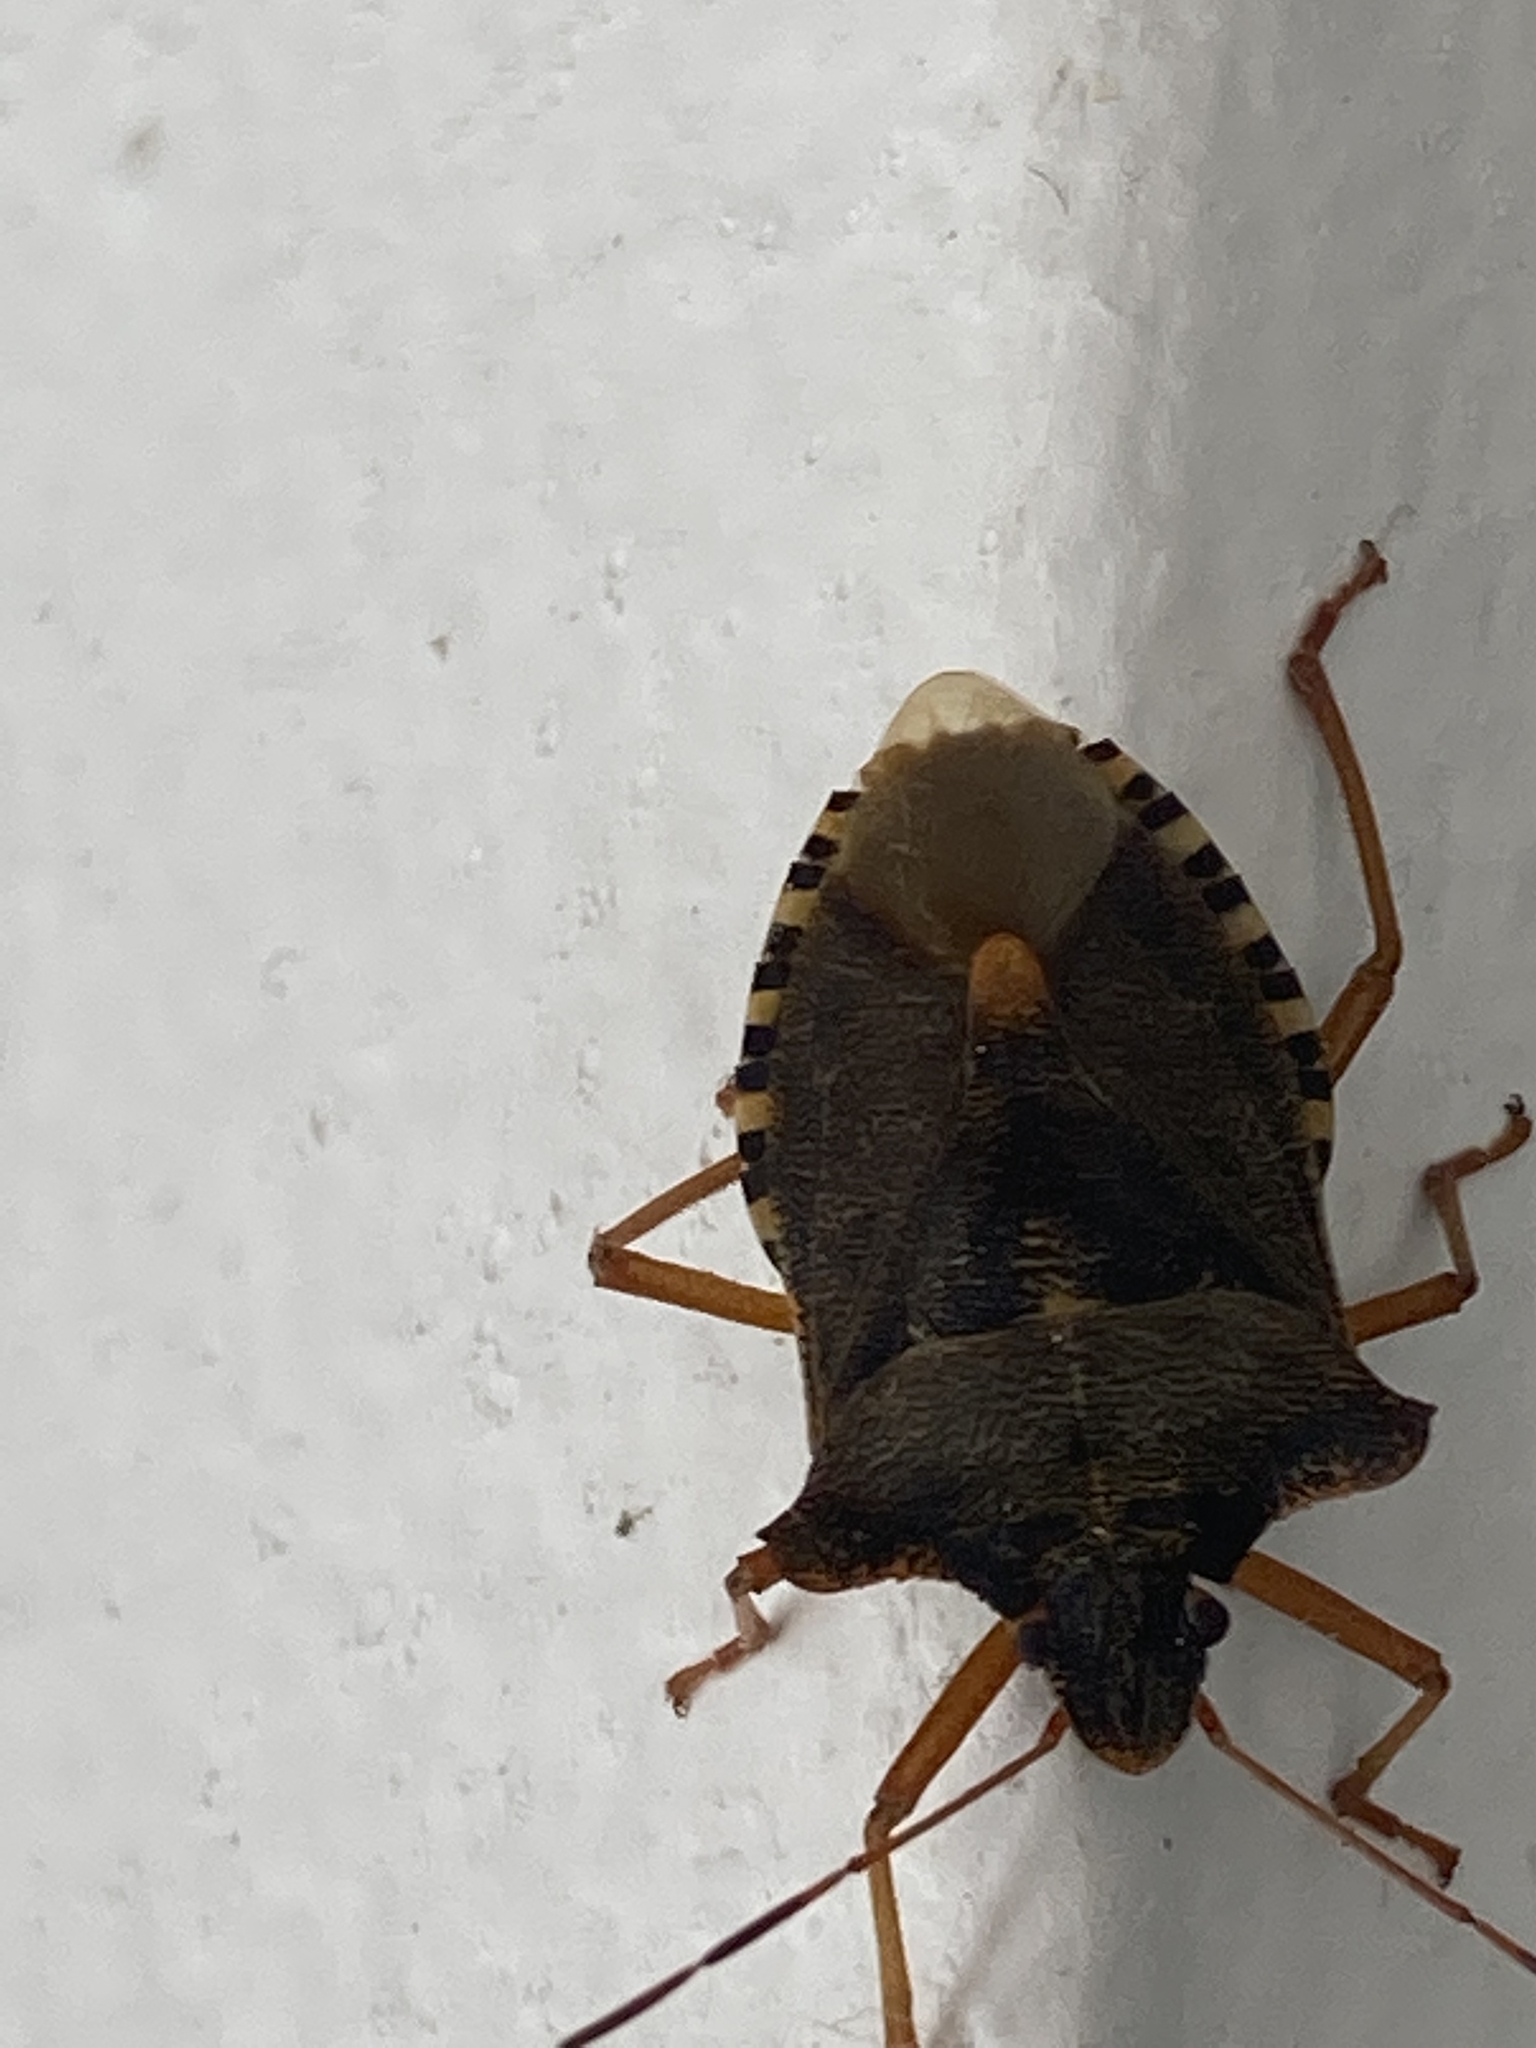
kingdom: Animalia
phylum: Arthropoda
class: Insecta
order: Hemiptera
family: Pentatomidae
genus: Pentatoma
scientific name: Pentatoma rufipes
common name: Forest bug
